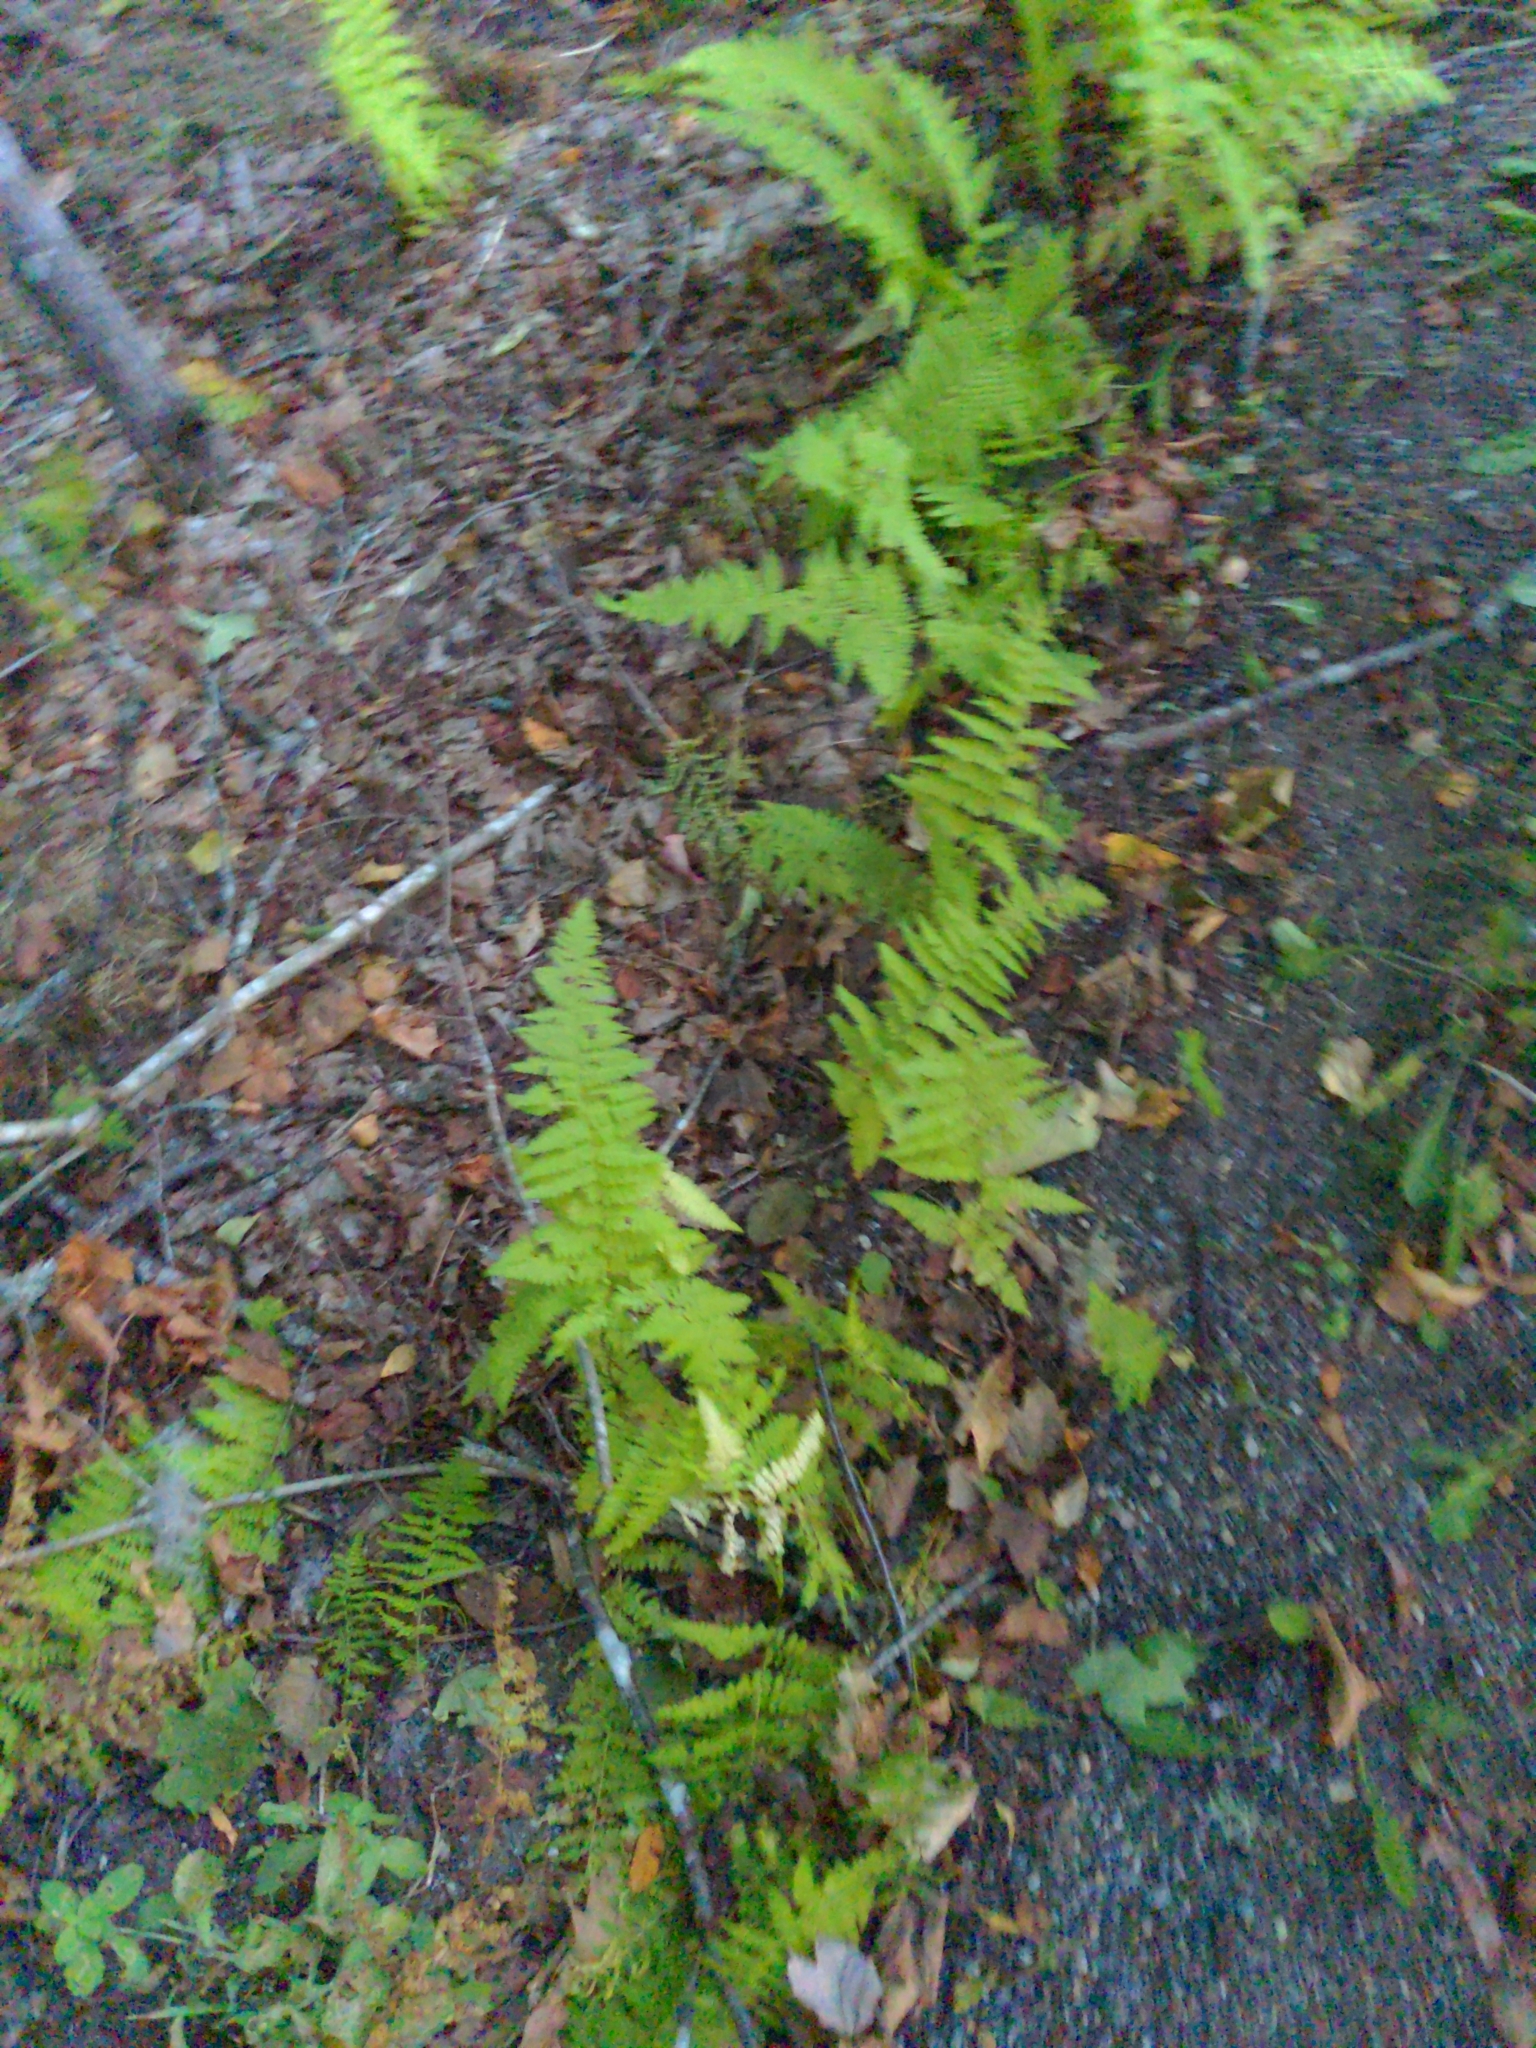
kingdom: Plantae
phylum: Tracheophyta
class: Polypodiopsida
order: Polypodiales
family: Dennstaedtiaceae
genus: Sitobolium
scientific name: Sitobolium punctilobum
